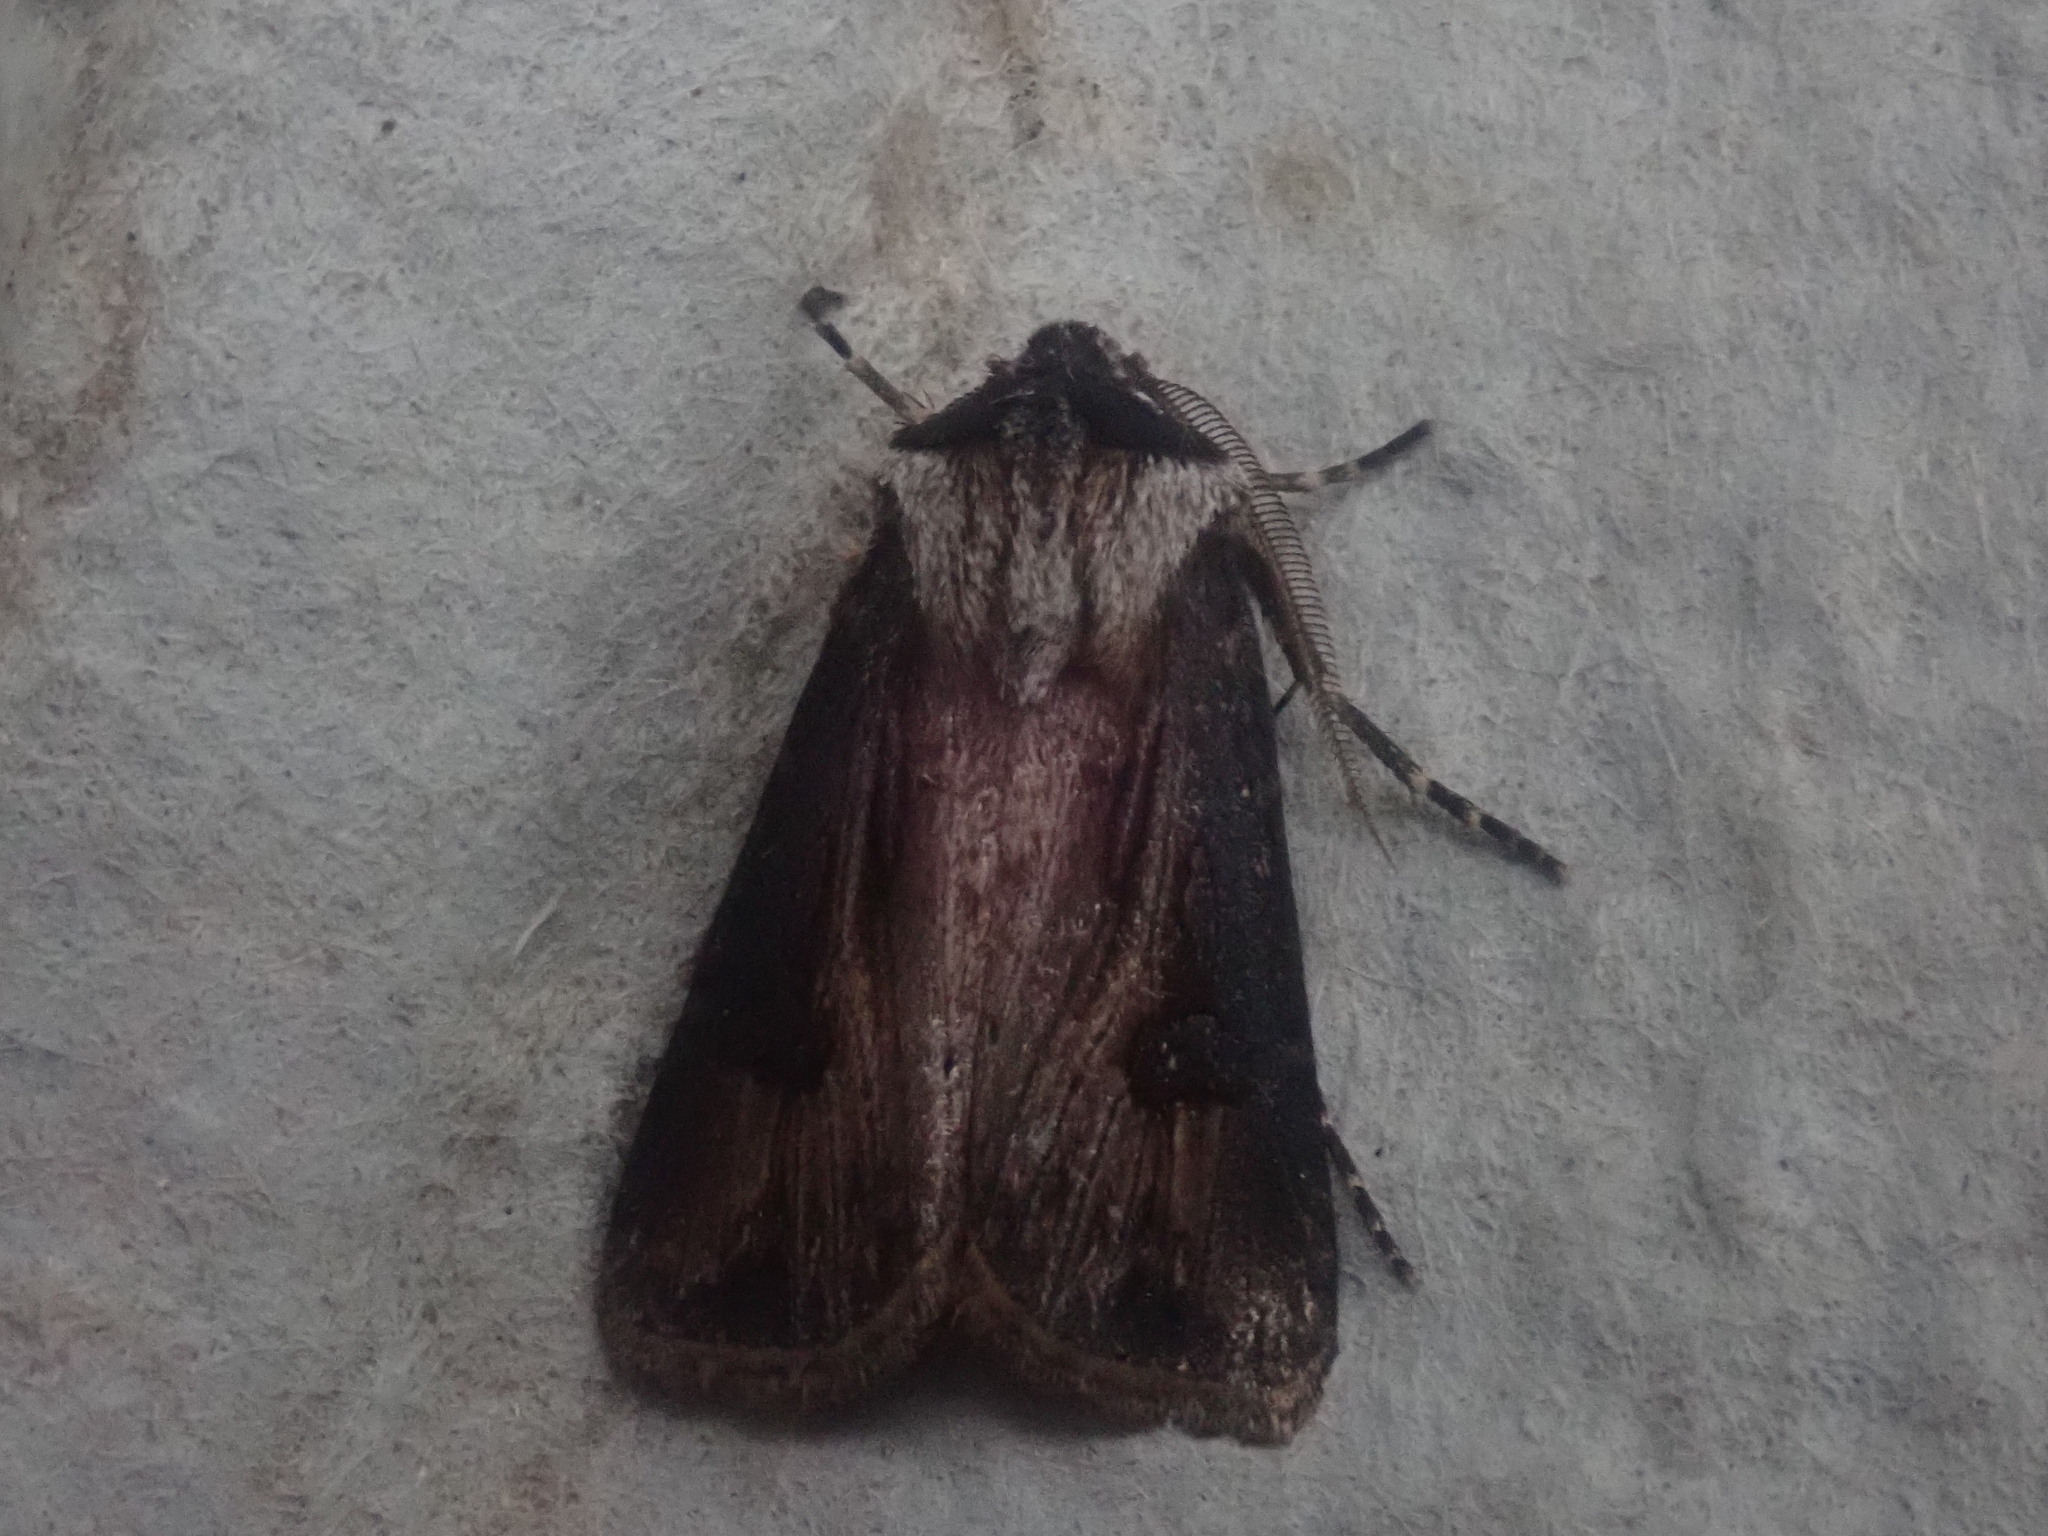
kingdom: Animalia
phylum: Arthropoda
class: Insecta
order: Lepidoptera
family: Noctuidae
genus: Agrotis
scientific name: Agrotis venerabilis
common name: Venerable dart
